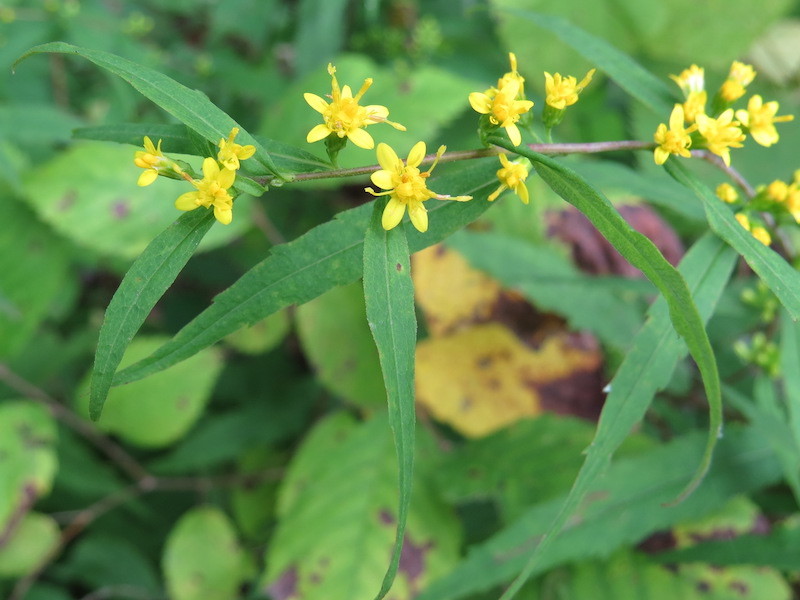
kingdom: Plantae
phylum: Tracheophyta
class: Magnoliopsida
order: Asterales
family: Asteraceae
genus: Solidago
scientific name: Solidago caesia
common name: Woodland goldenrod
